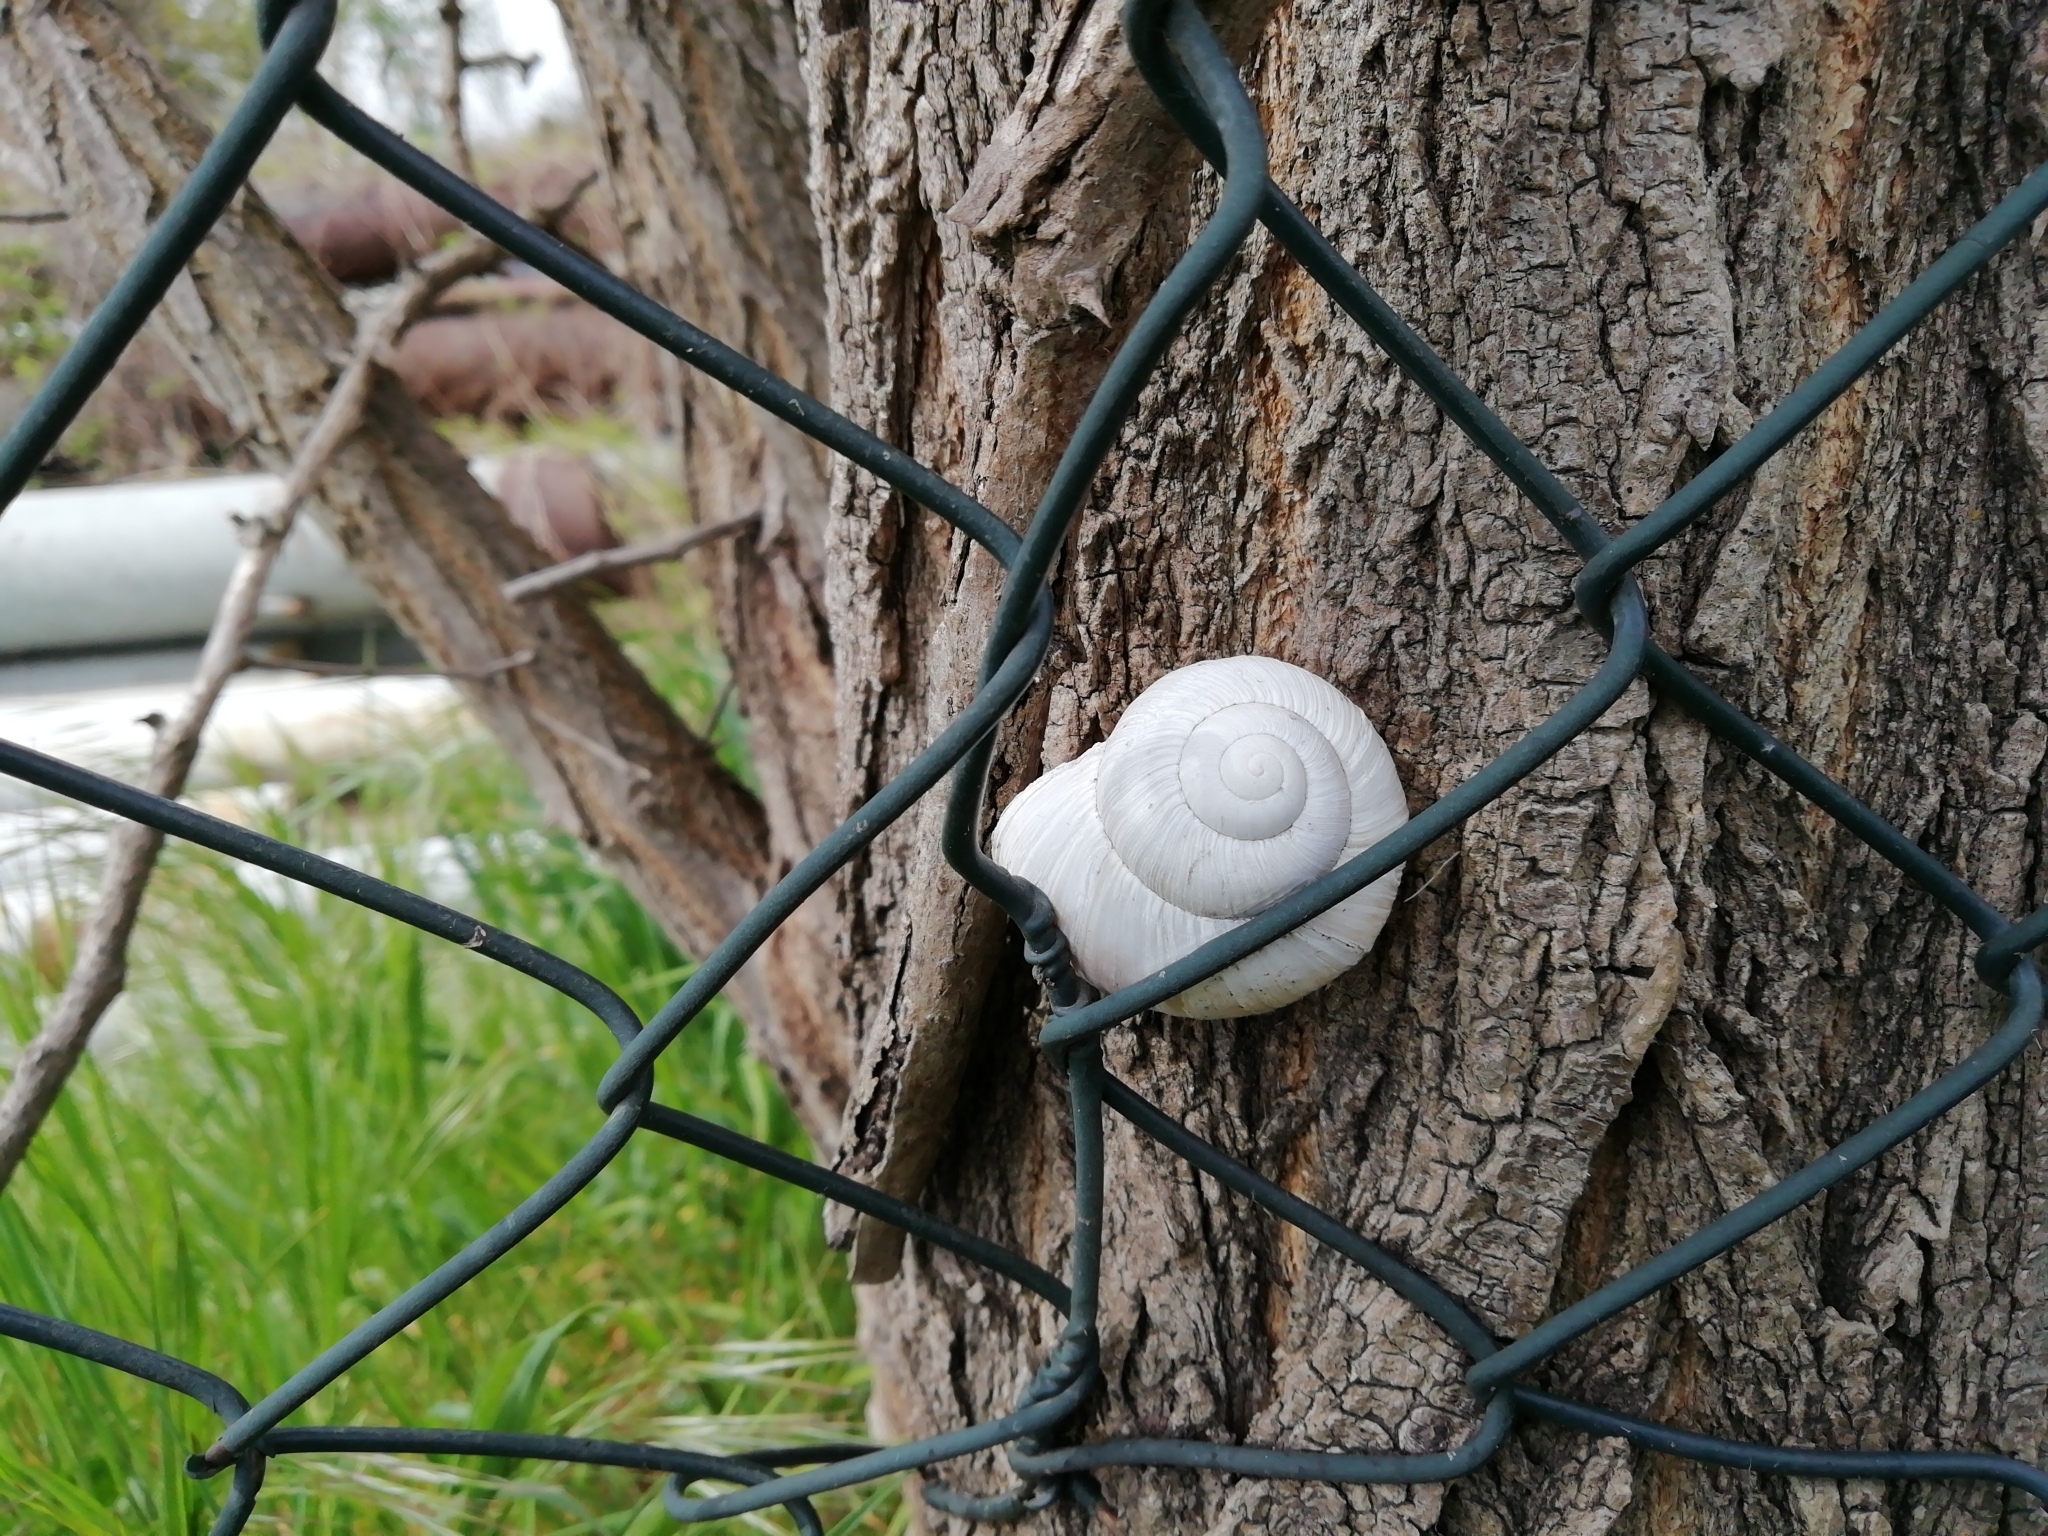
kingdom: Animalia
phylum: Mollusca
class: Gastropoda
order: Stylommatophora
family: Helicidae
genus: Helix
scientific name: Helix pomatia
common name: Roman snail
